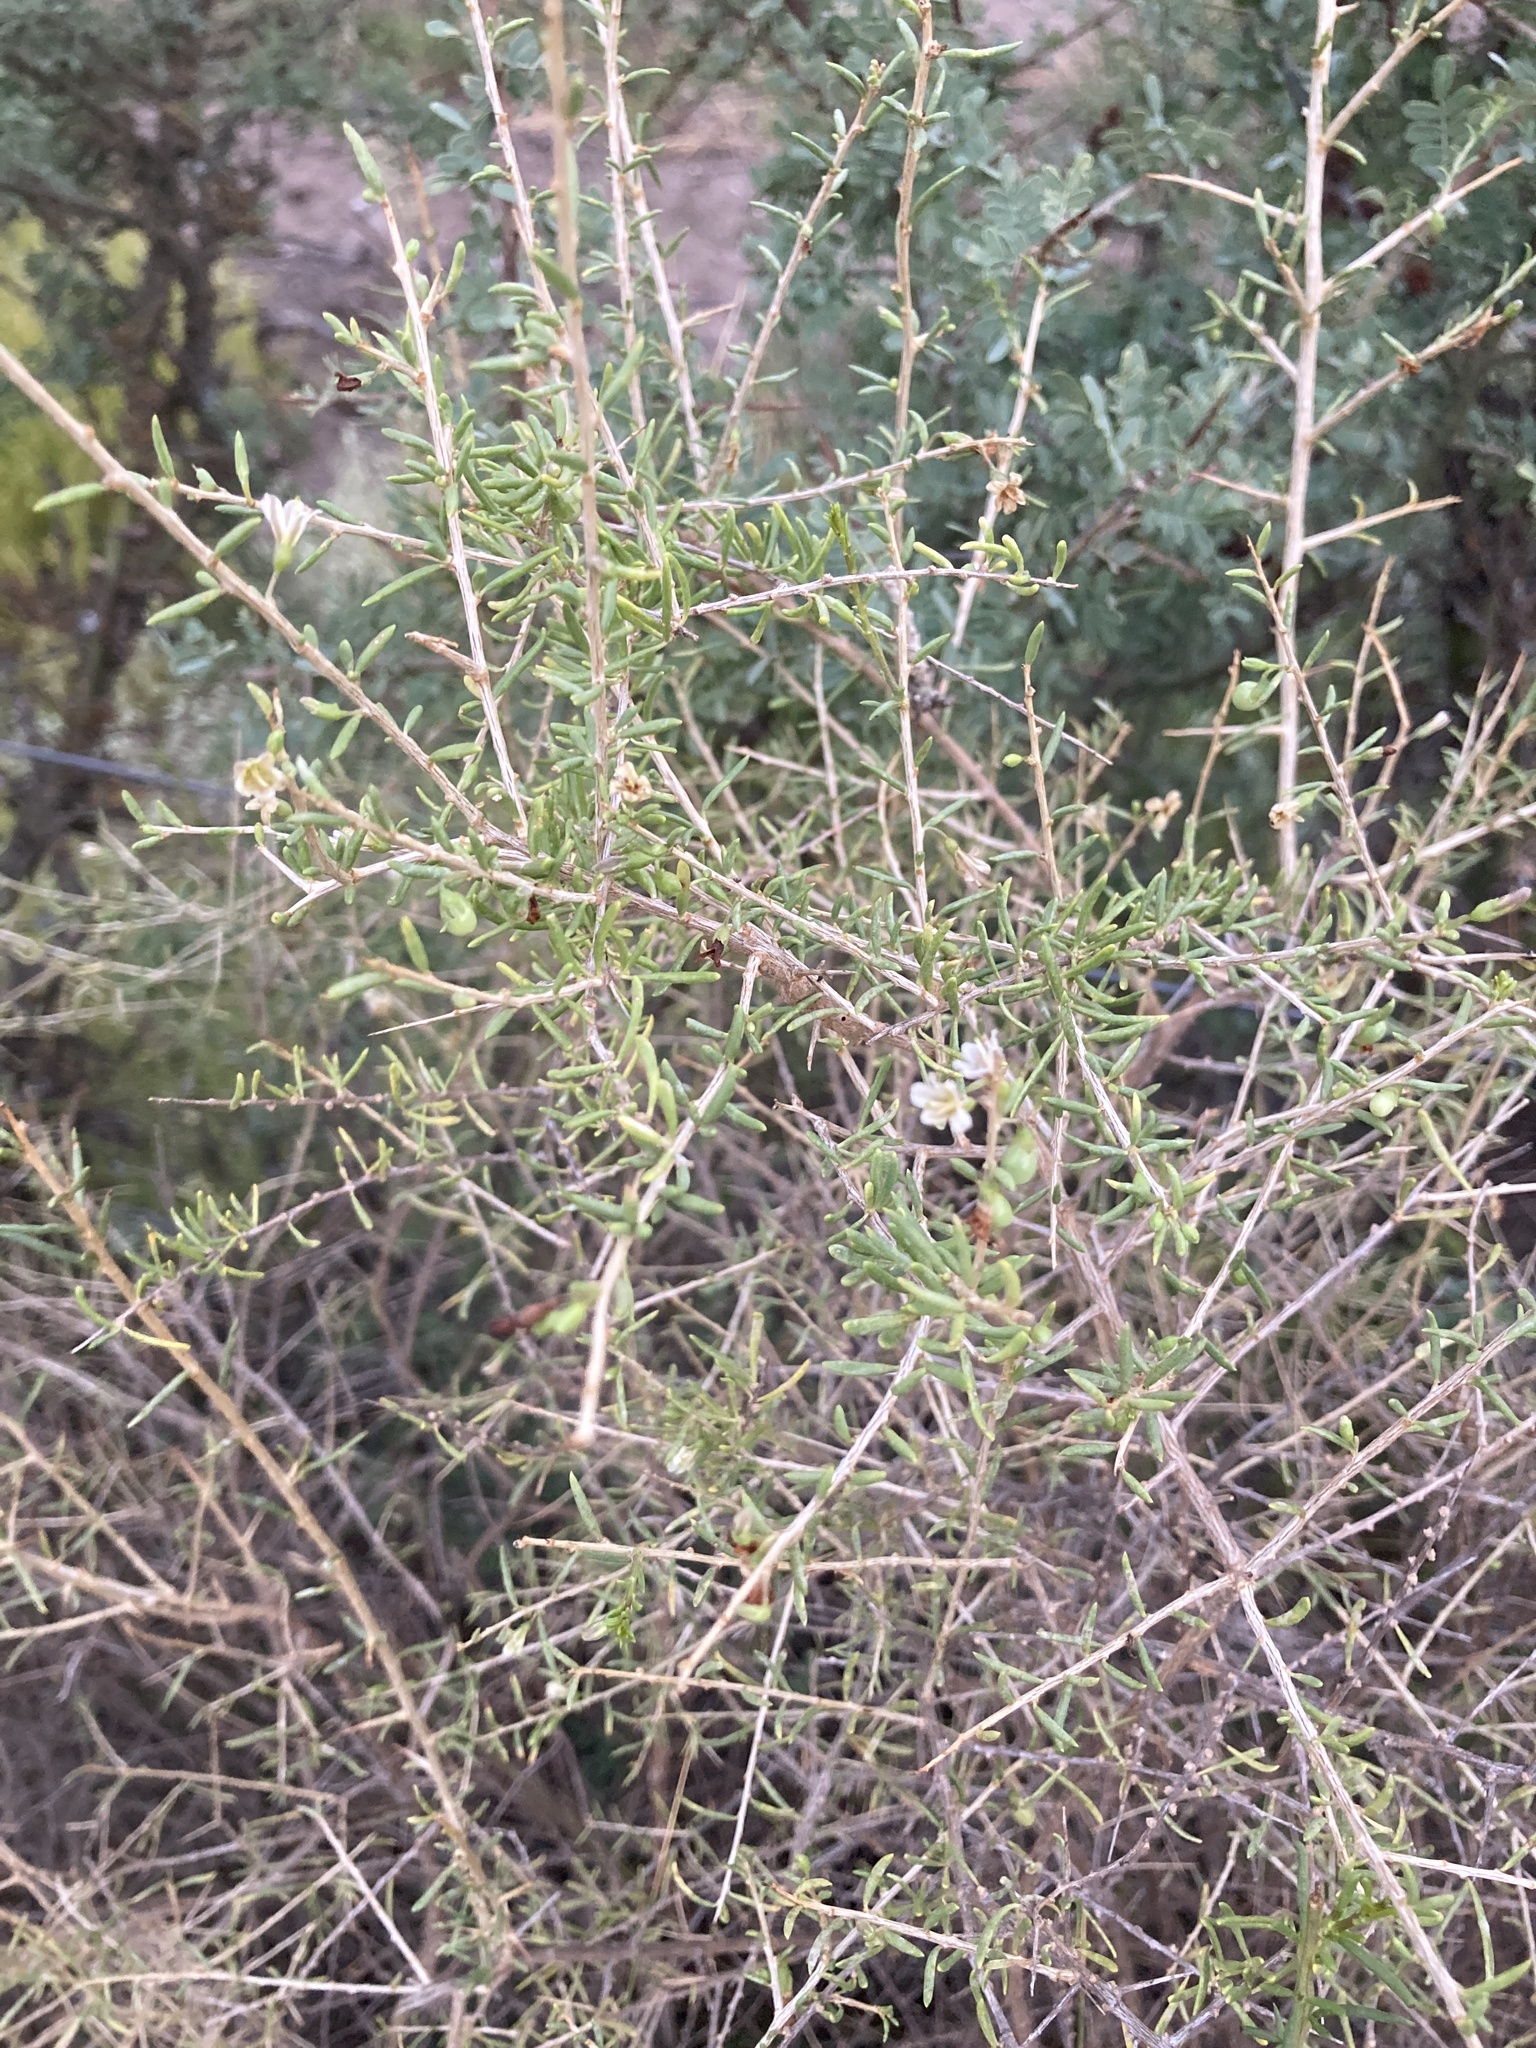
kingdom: Plantae
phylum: Tracheophyta
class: Magnoliopsida
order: Solanales
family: Solanaceae
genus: Lycium
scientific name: Lycium chilense
